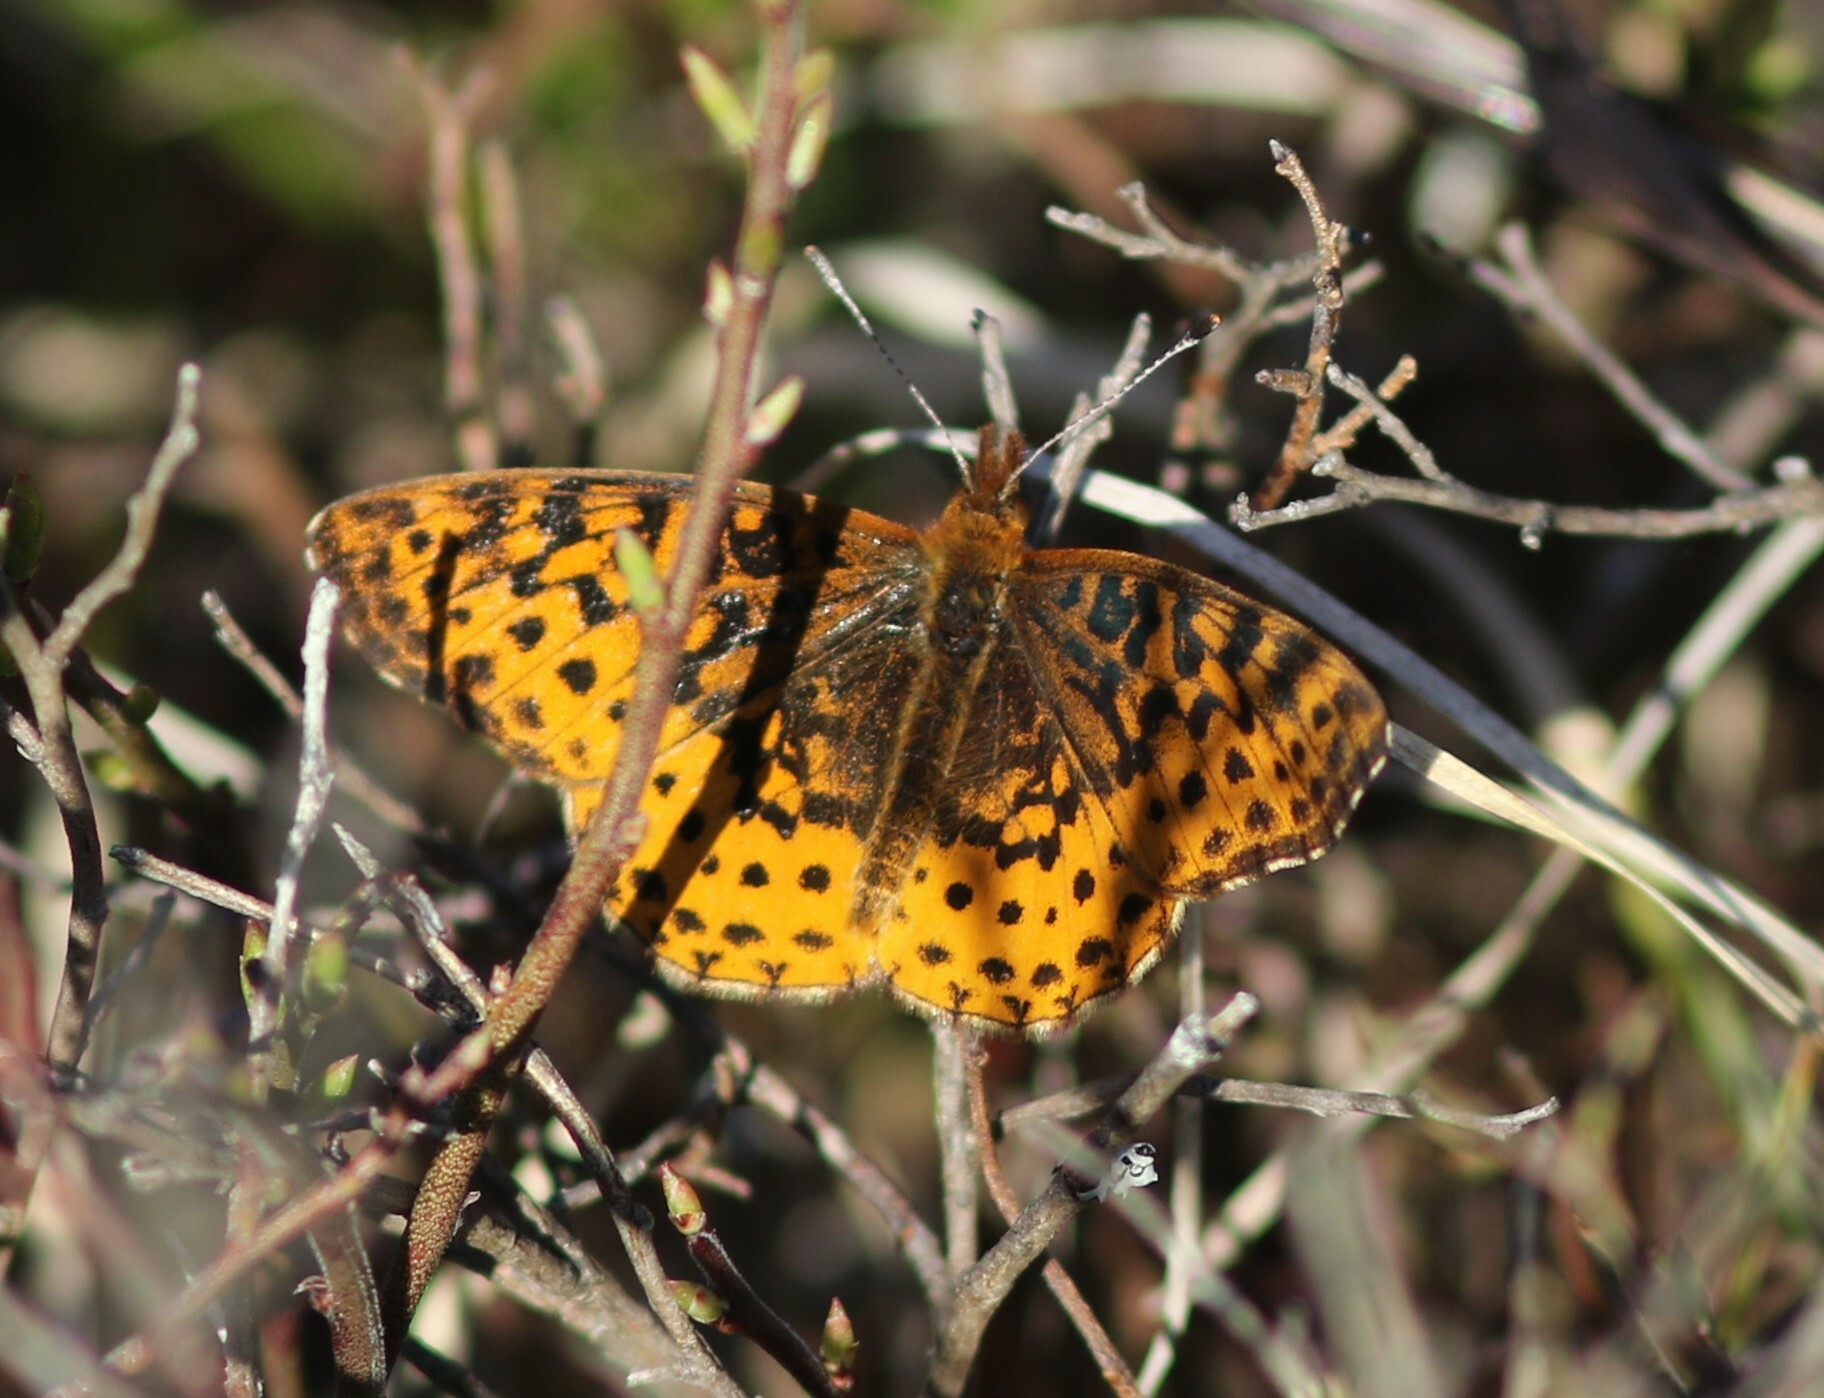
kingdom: Animalia
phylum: Arthropoda
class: Insecta
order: Lepidoptera
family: Nymphalidae
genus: Clossiana
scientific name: Clossiana toddi
